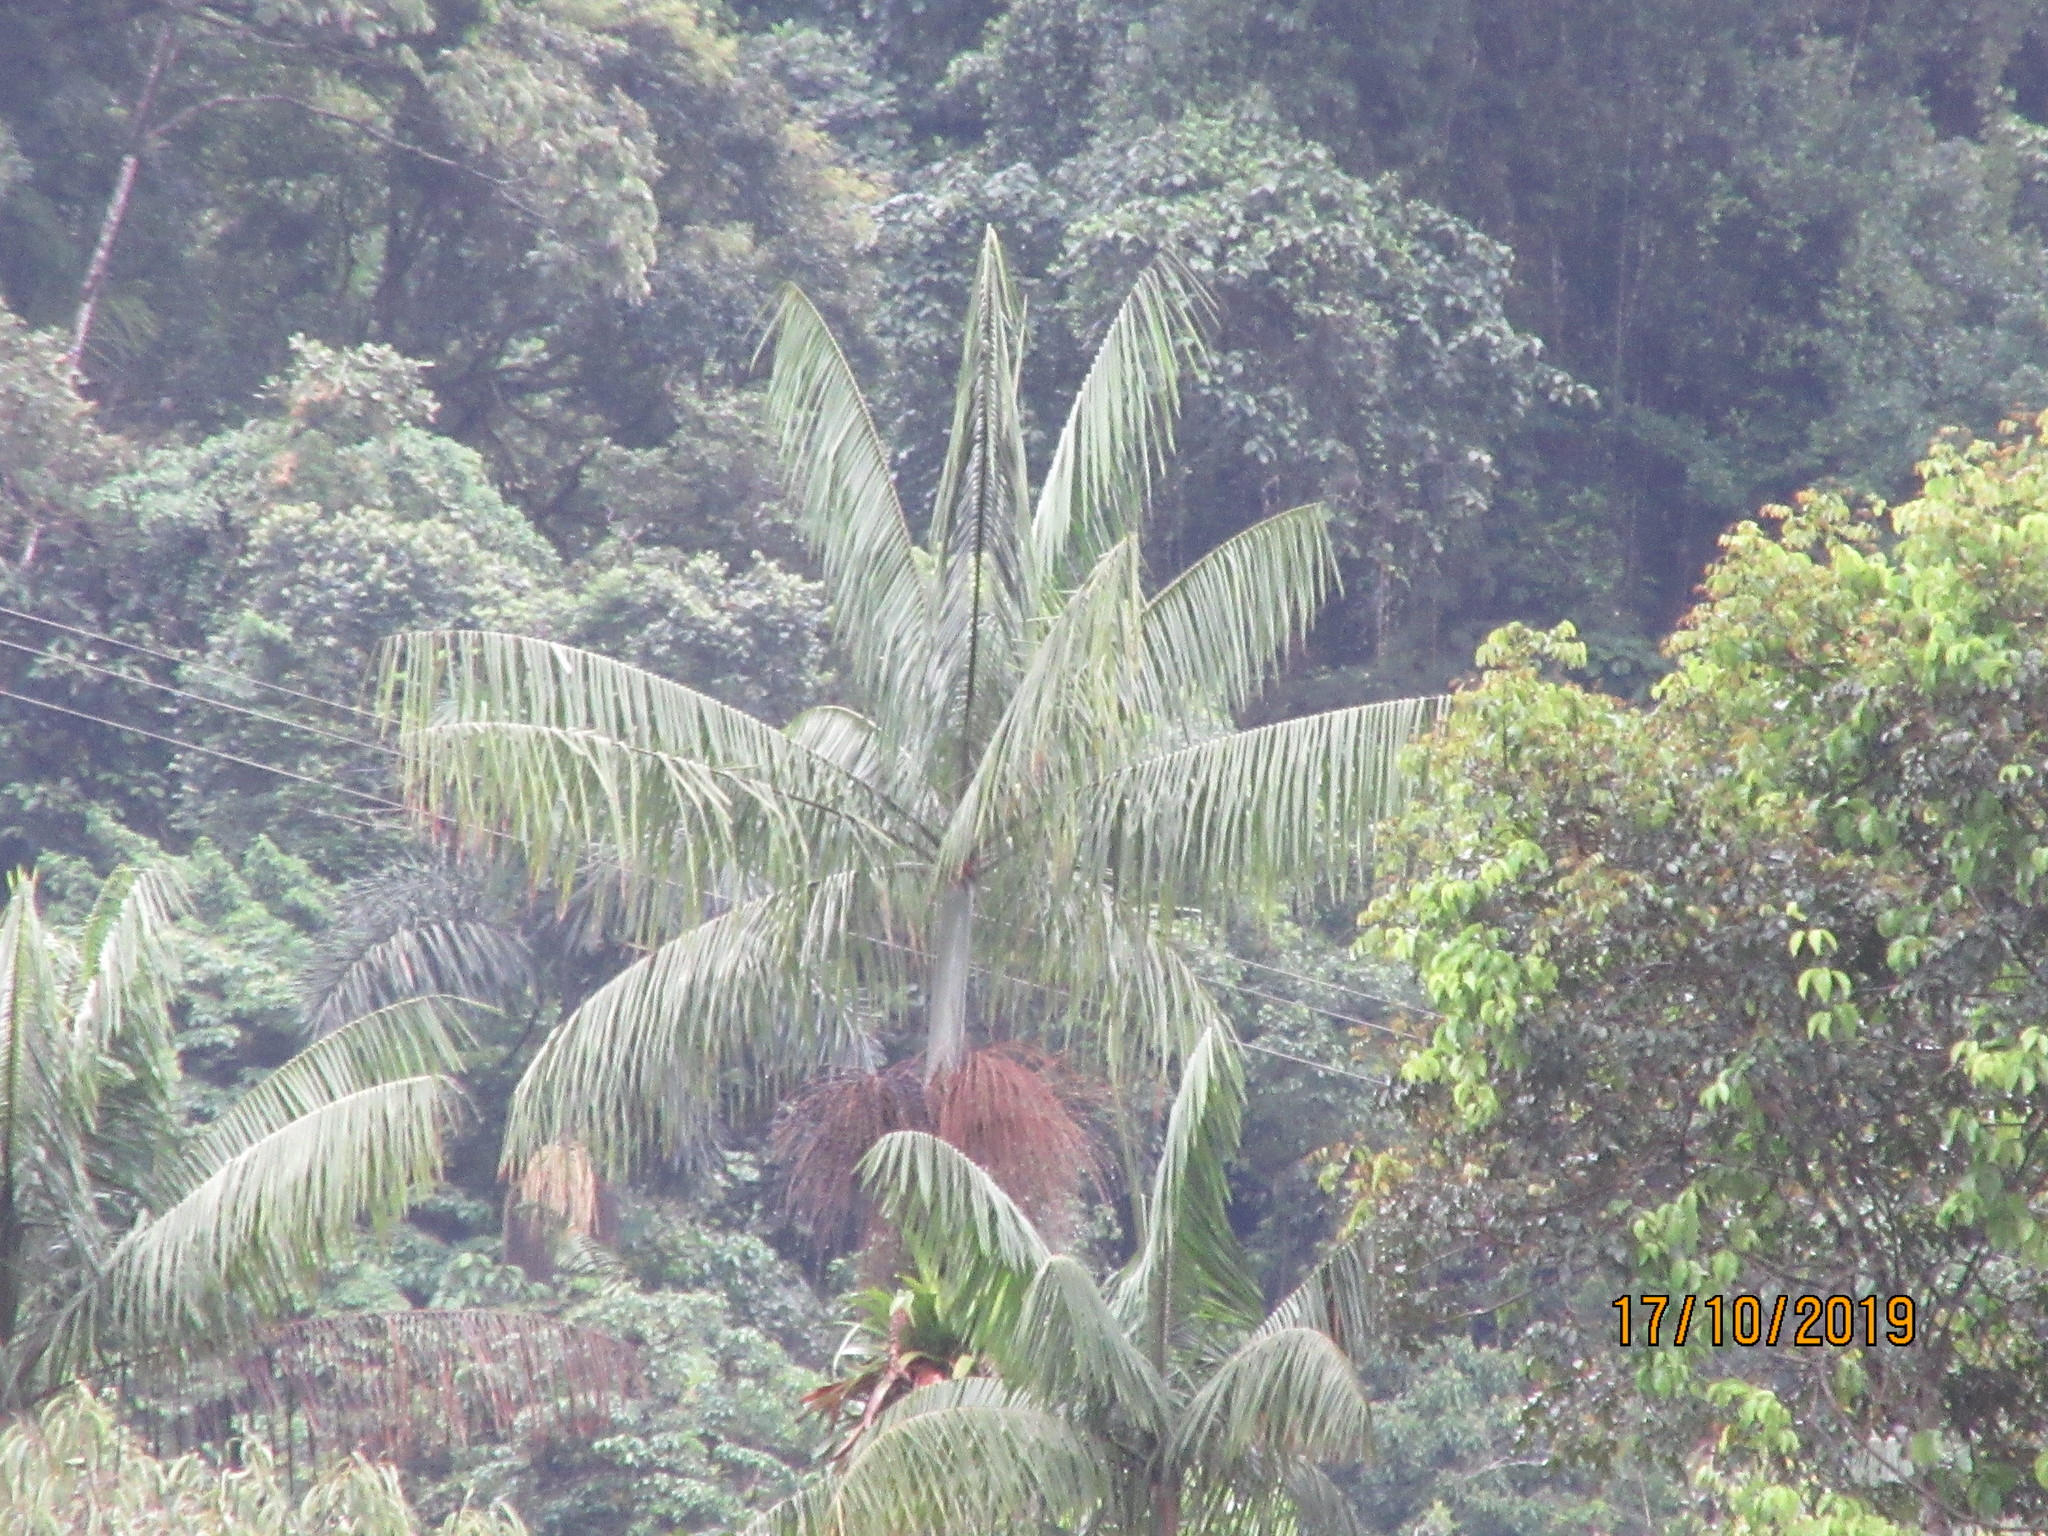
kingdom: Plantae
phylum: Tracheophyta
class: Liliopsida
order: Arecales
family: Arecaceae
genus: Euterpe
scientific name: Euterpe precatoria
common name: Mountain-cabbage
